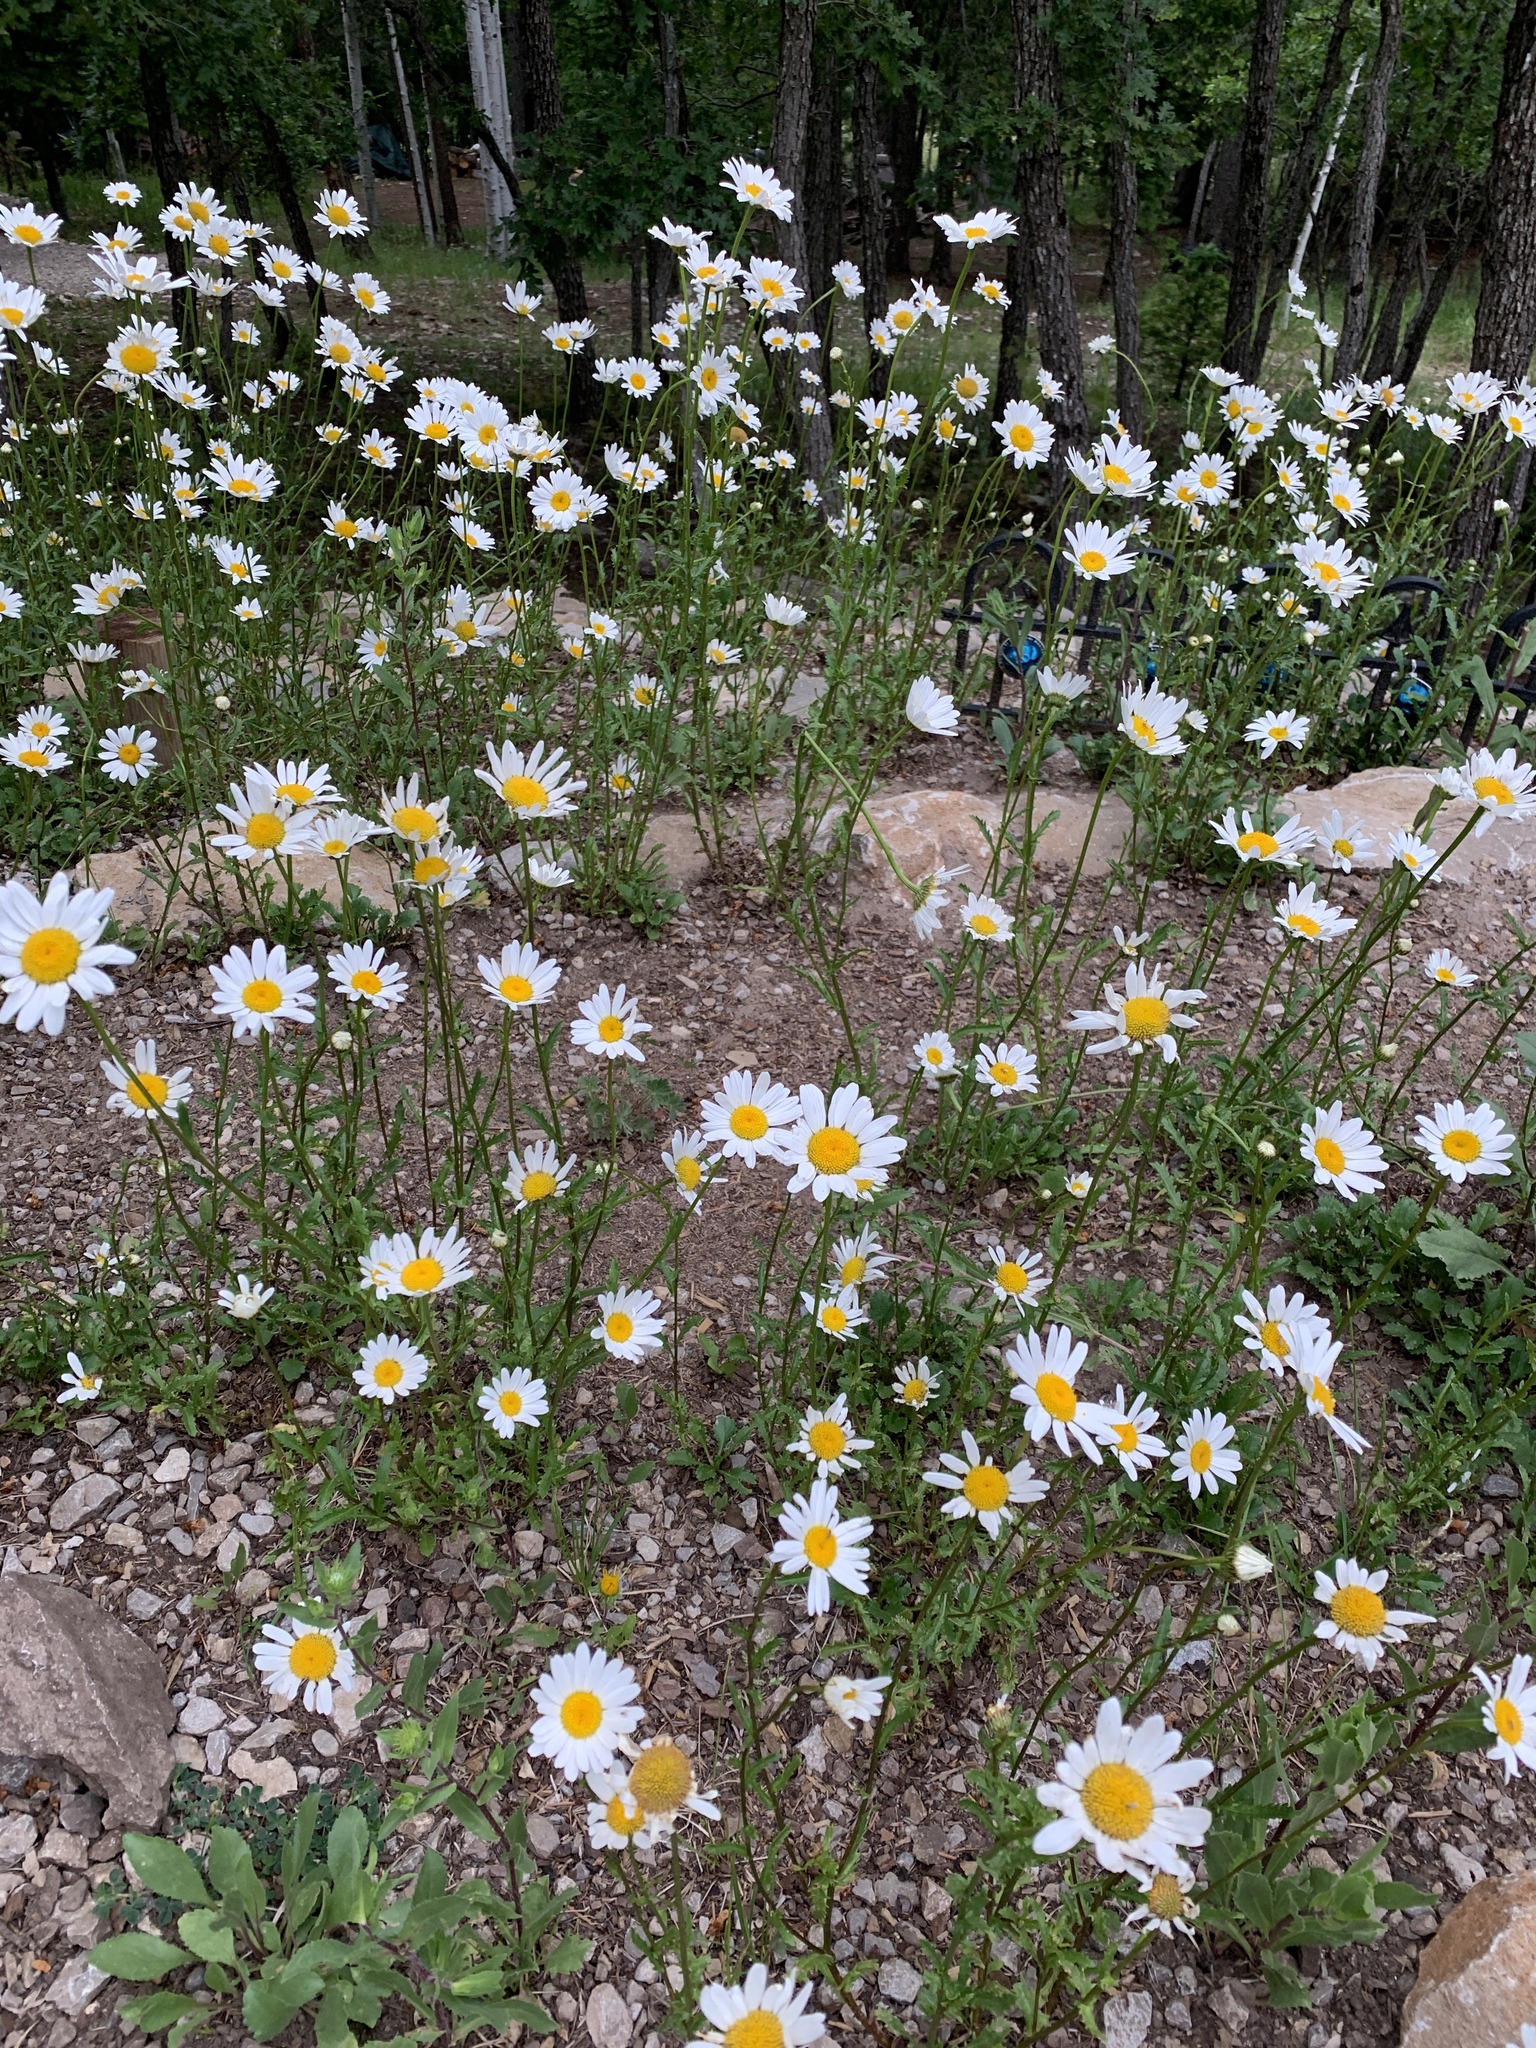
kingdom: Plantae
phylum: Tracheophyta
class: Magnoliopsida
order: Asterales
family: Asteraceae
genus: Leucanthemum
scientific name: Leucanthemum vulgare
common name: Oxeye daisy
